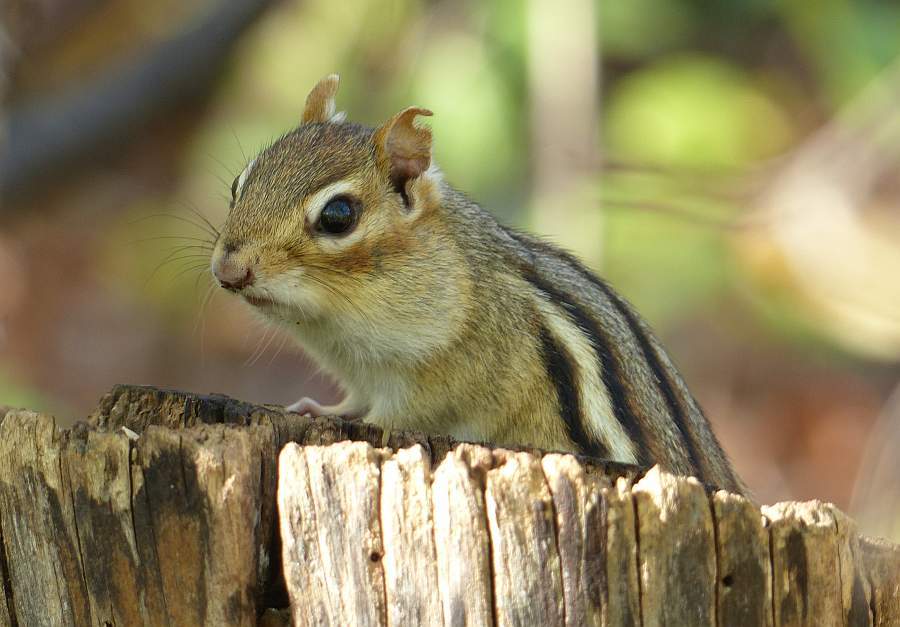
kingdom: Animalia
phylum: Chordata
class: Mammalia
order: Rodentia
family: Sciuridae
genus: Tamias
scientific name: Tamias striatus
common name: Eastern chipmunk
